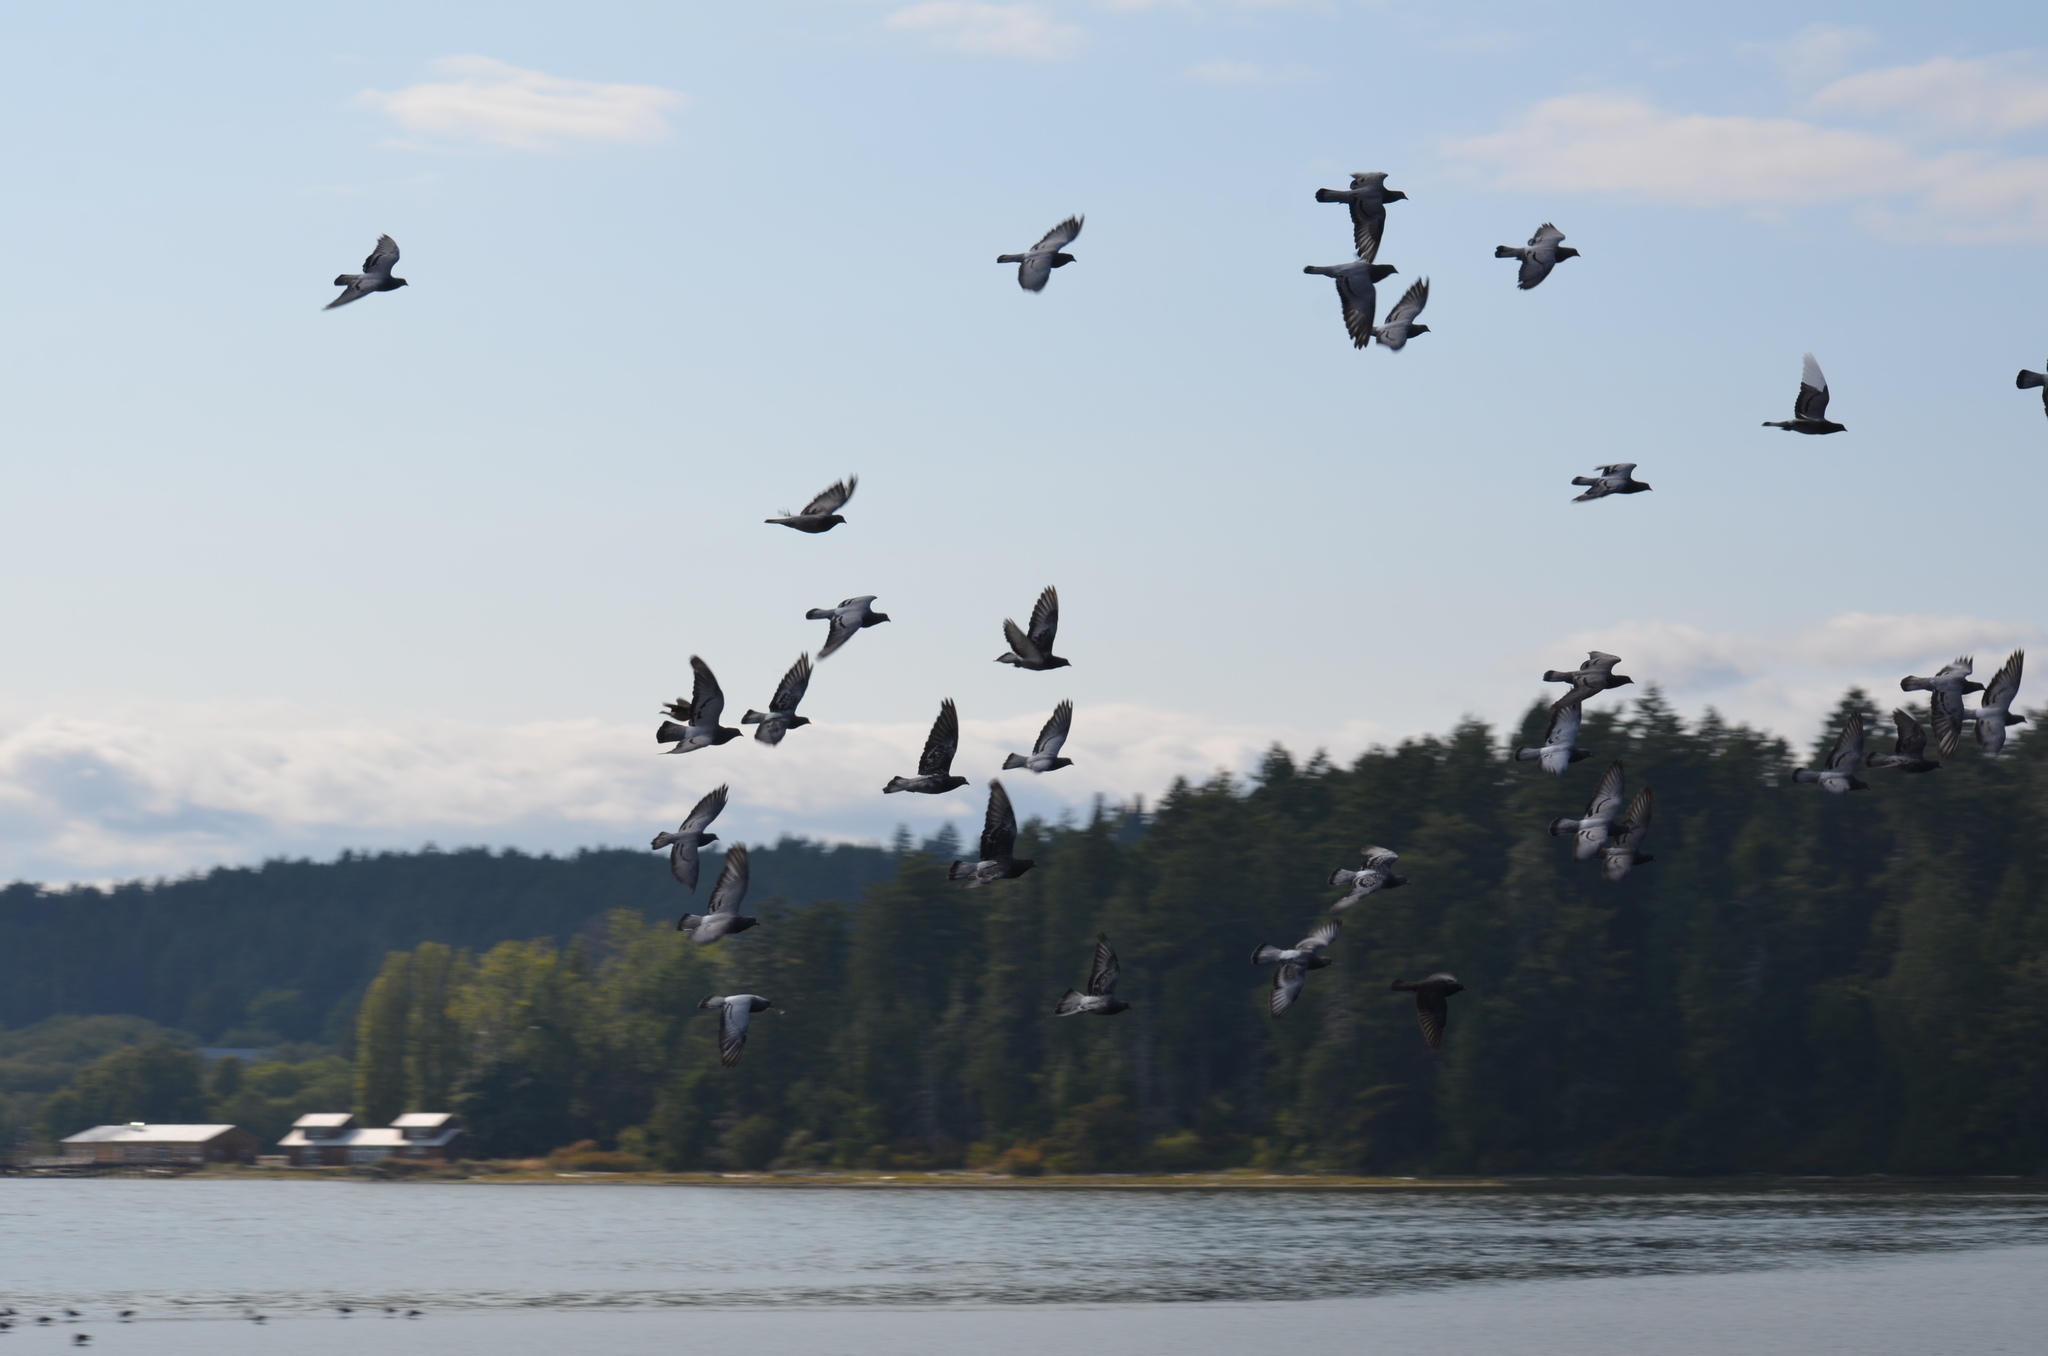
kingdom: Animalia
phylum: Chordata
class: Aves
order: Columbiformes
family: Columbidae
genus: Columba
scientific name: Columba livia
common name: Rock pigeon
